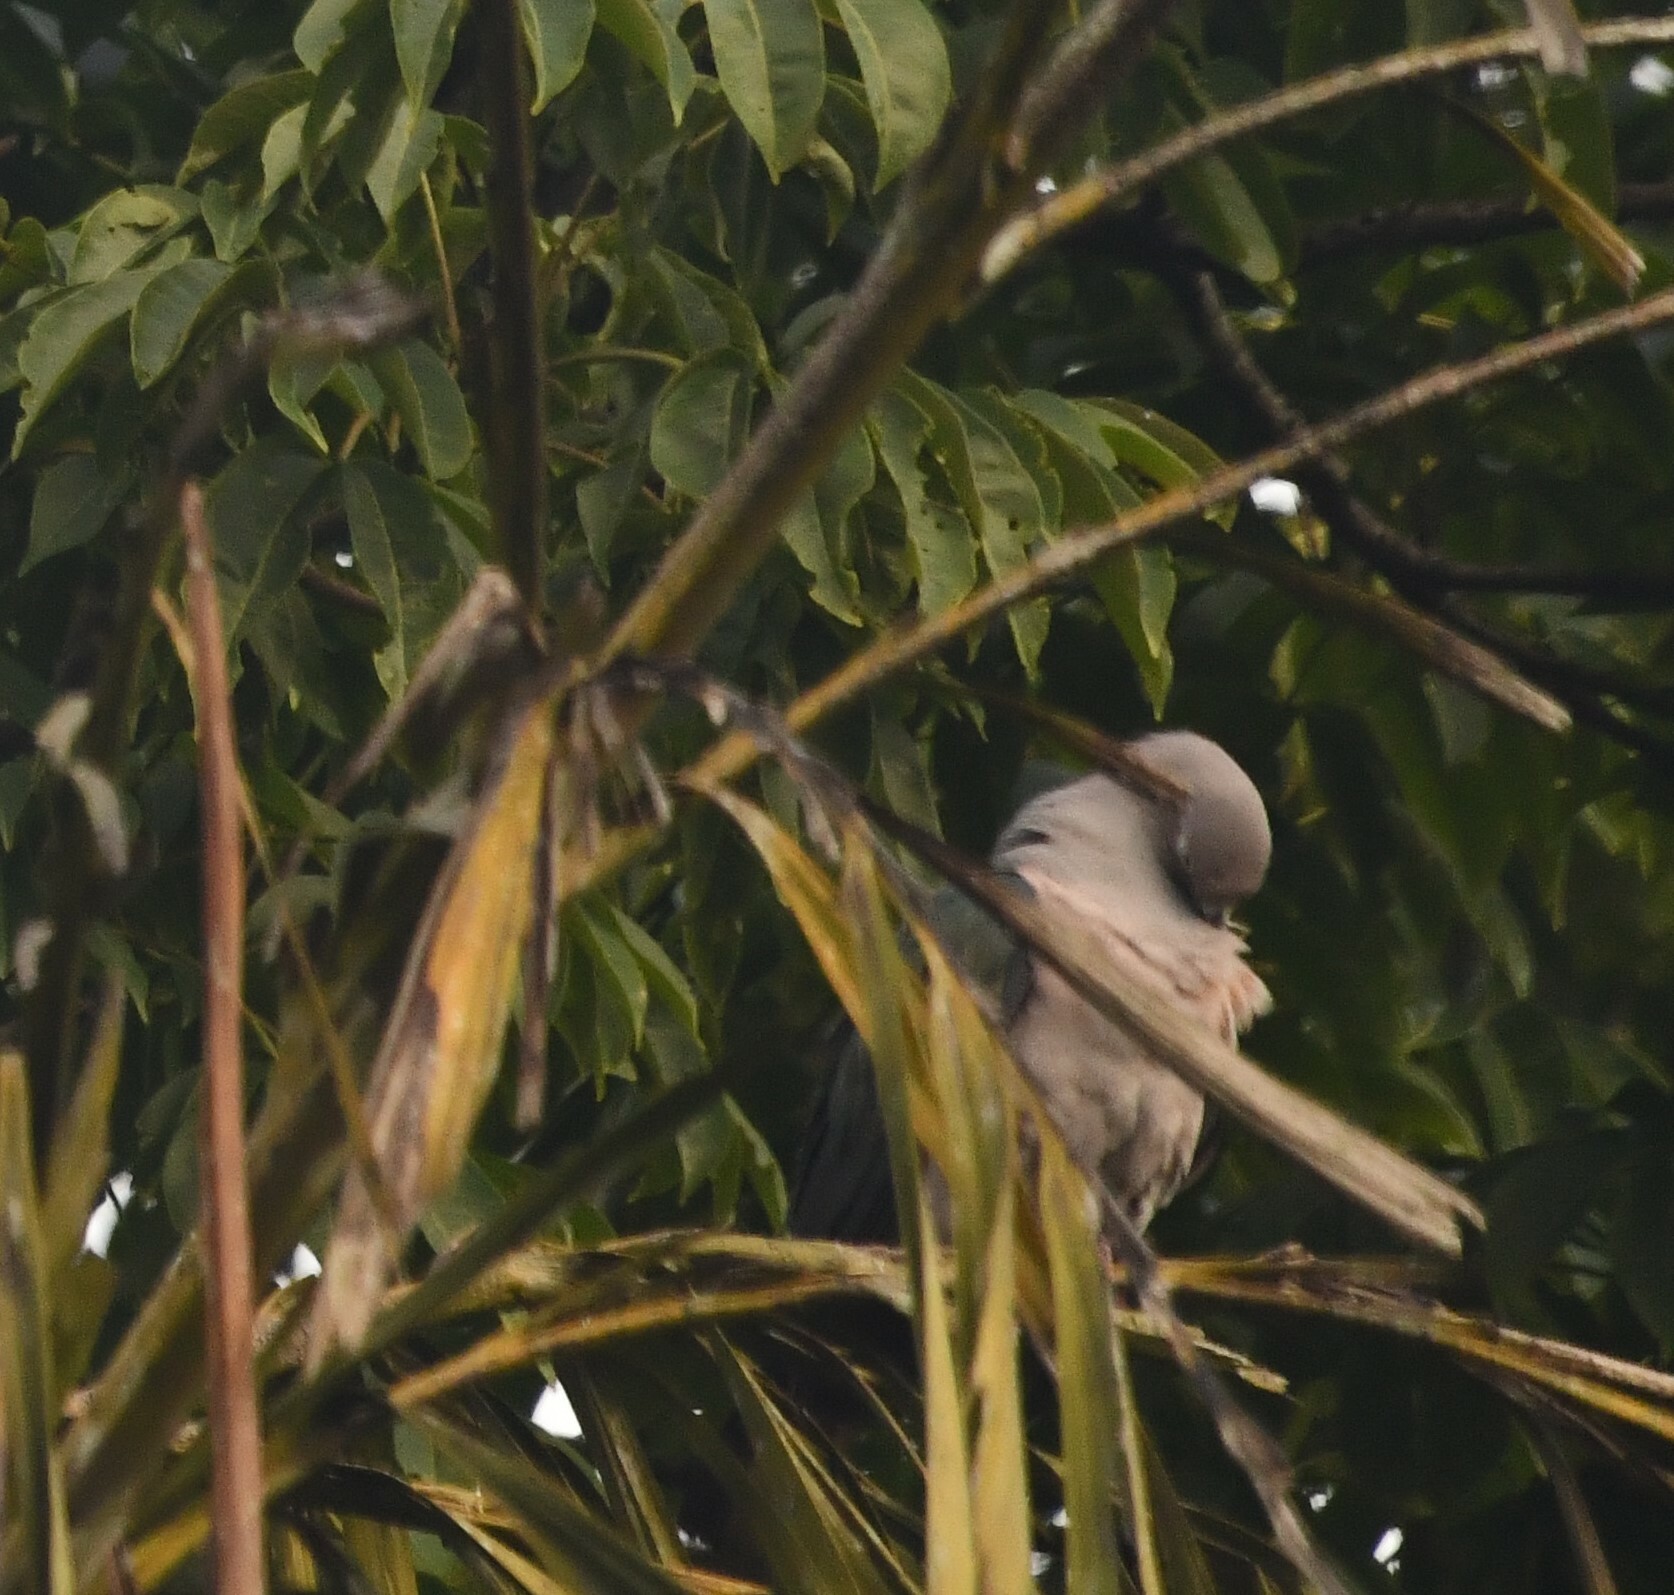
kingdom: Animalia
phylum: Chordata
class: Aves
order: Columbiformes
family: Columbidae
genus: Ducula
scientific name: Ducula aenea
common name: Green imperial pigeon
